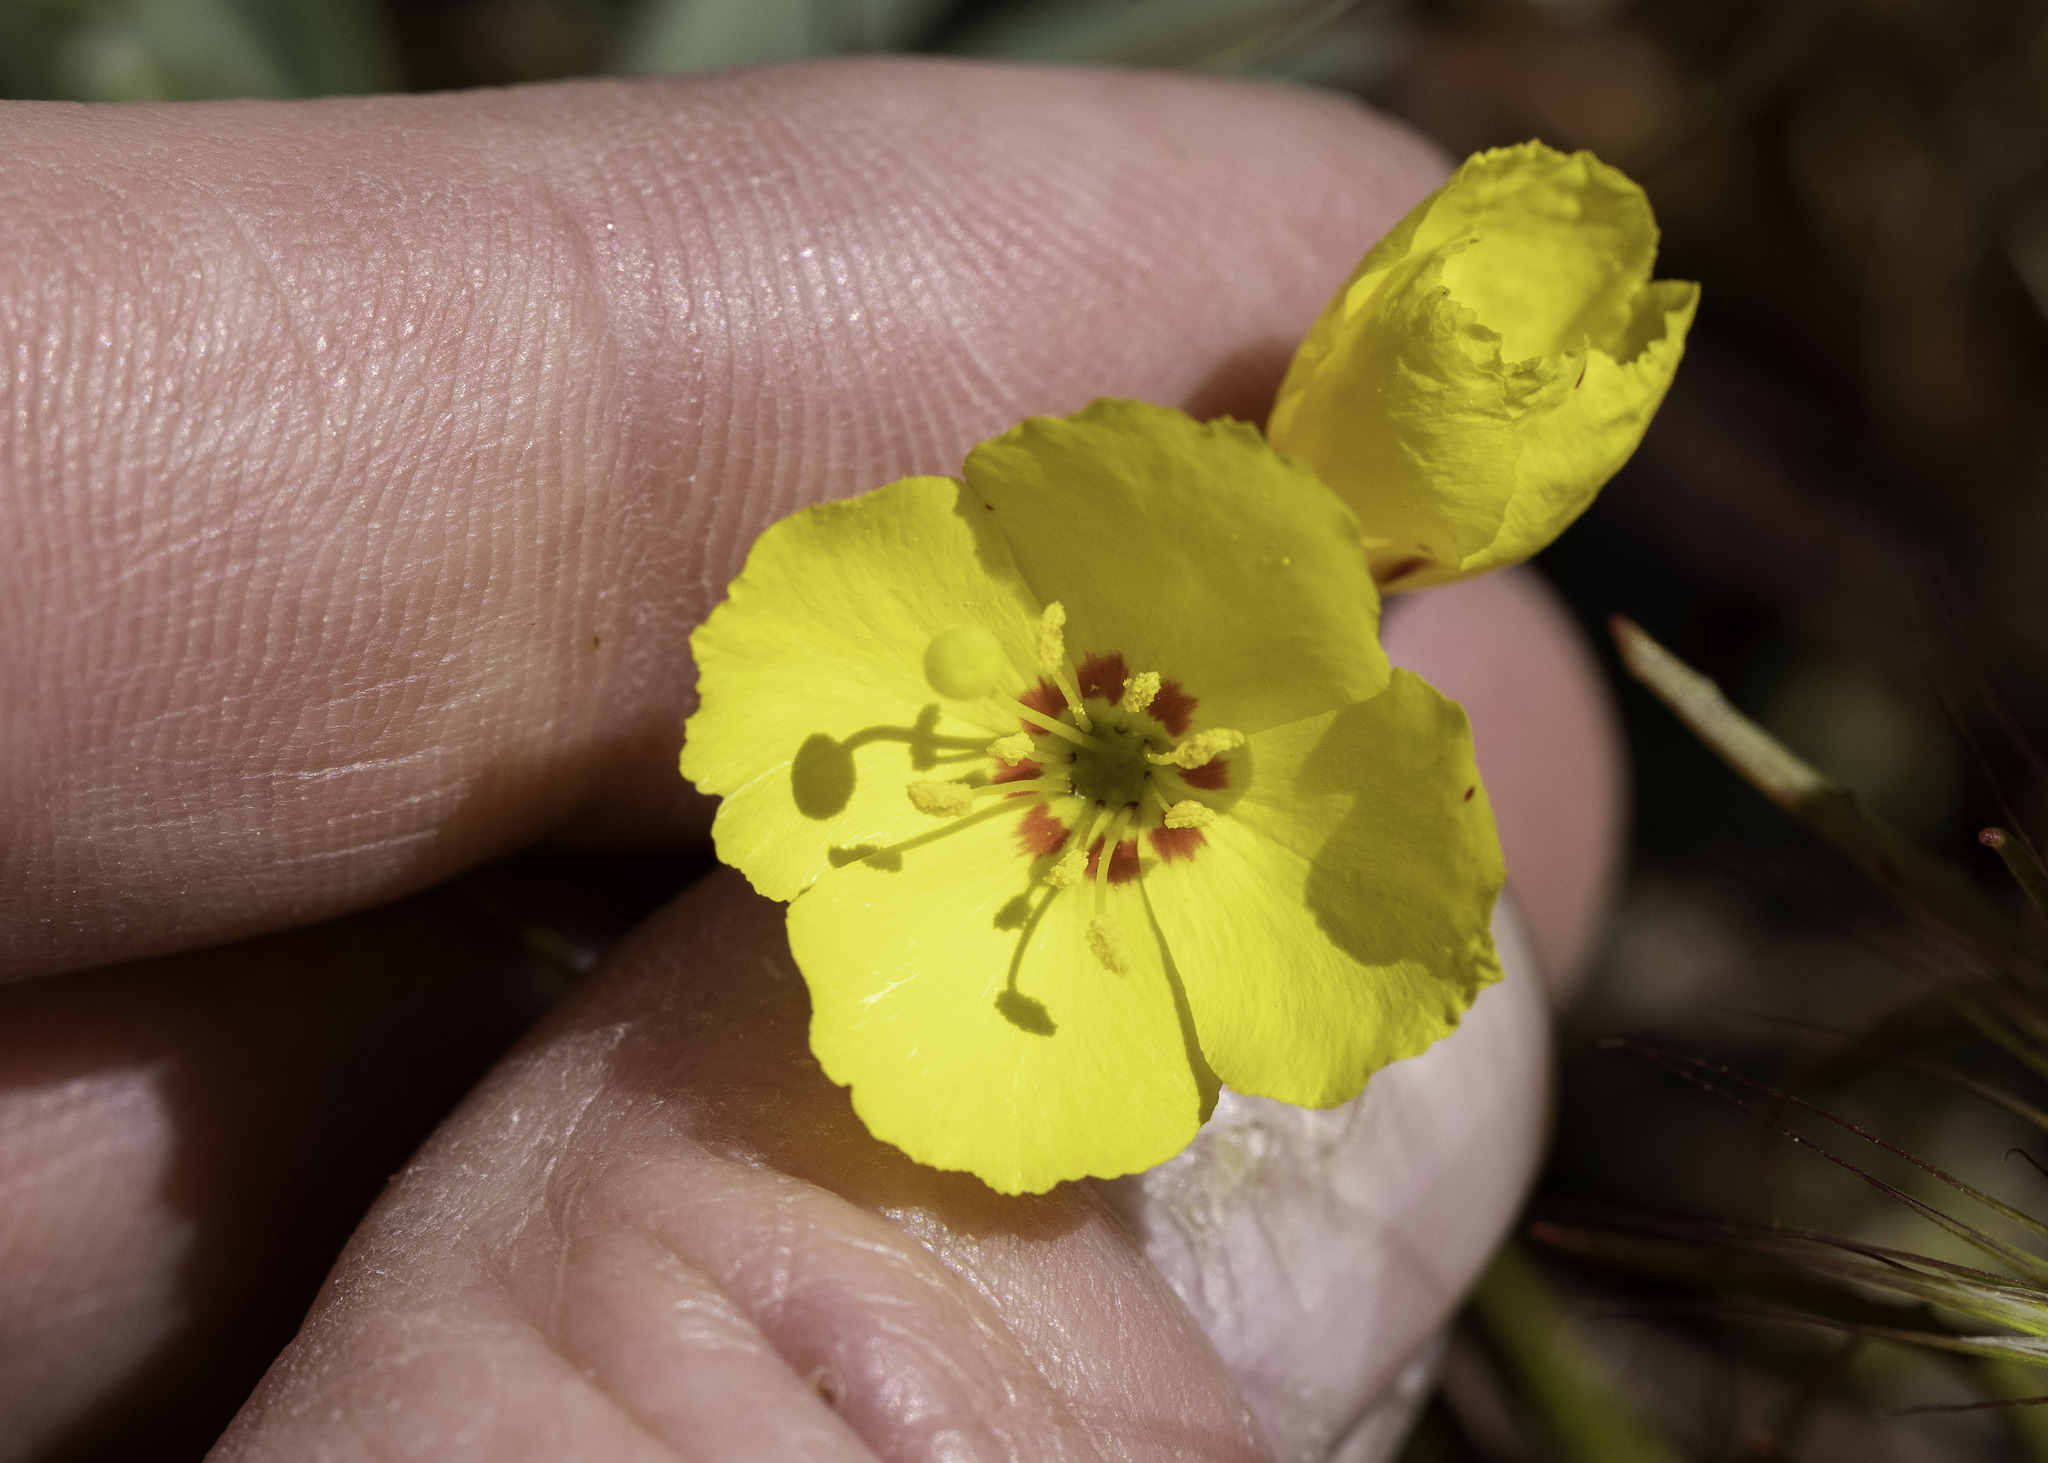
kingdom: Plantae
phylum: Tracheophyta
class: Magnoliopsida
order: Myrtales
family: Onagraceae
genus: Camissonia
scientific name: Camissonia campestris
